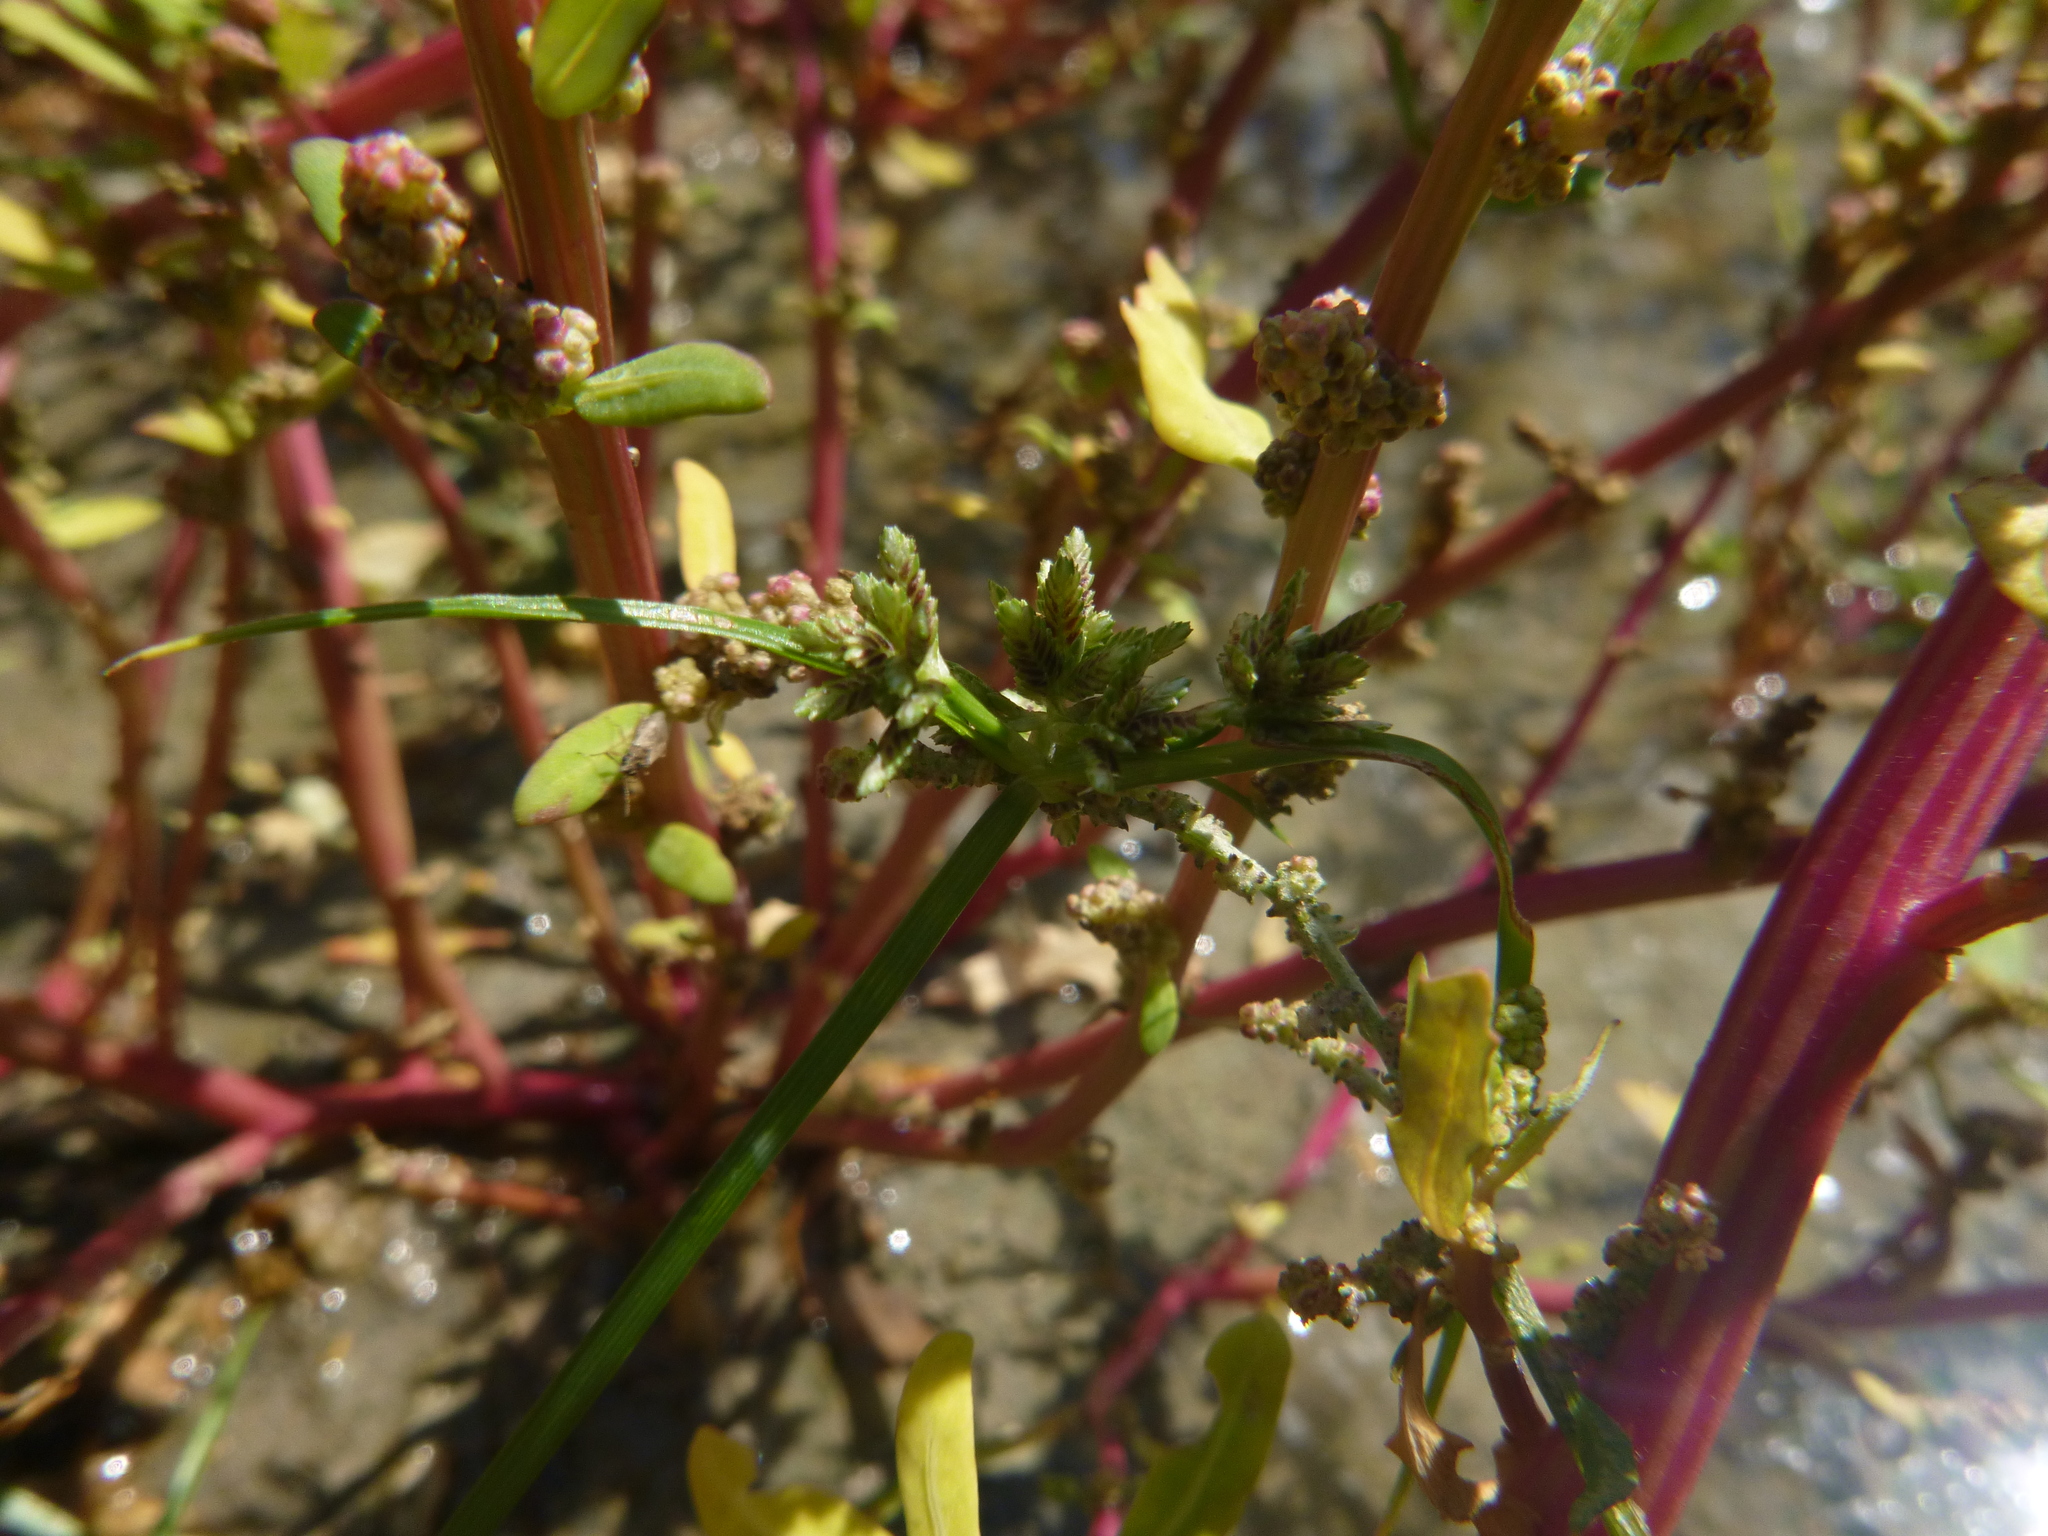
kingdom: Plantae
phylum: Tracheophyta
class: Liliopsida
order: Poales
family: Cyperaceae
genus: Cyperus
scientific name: Cyperus fuscus
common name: Brown galingale
